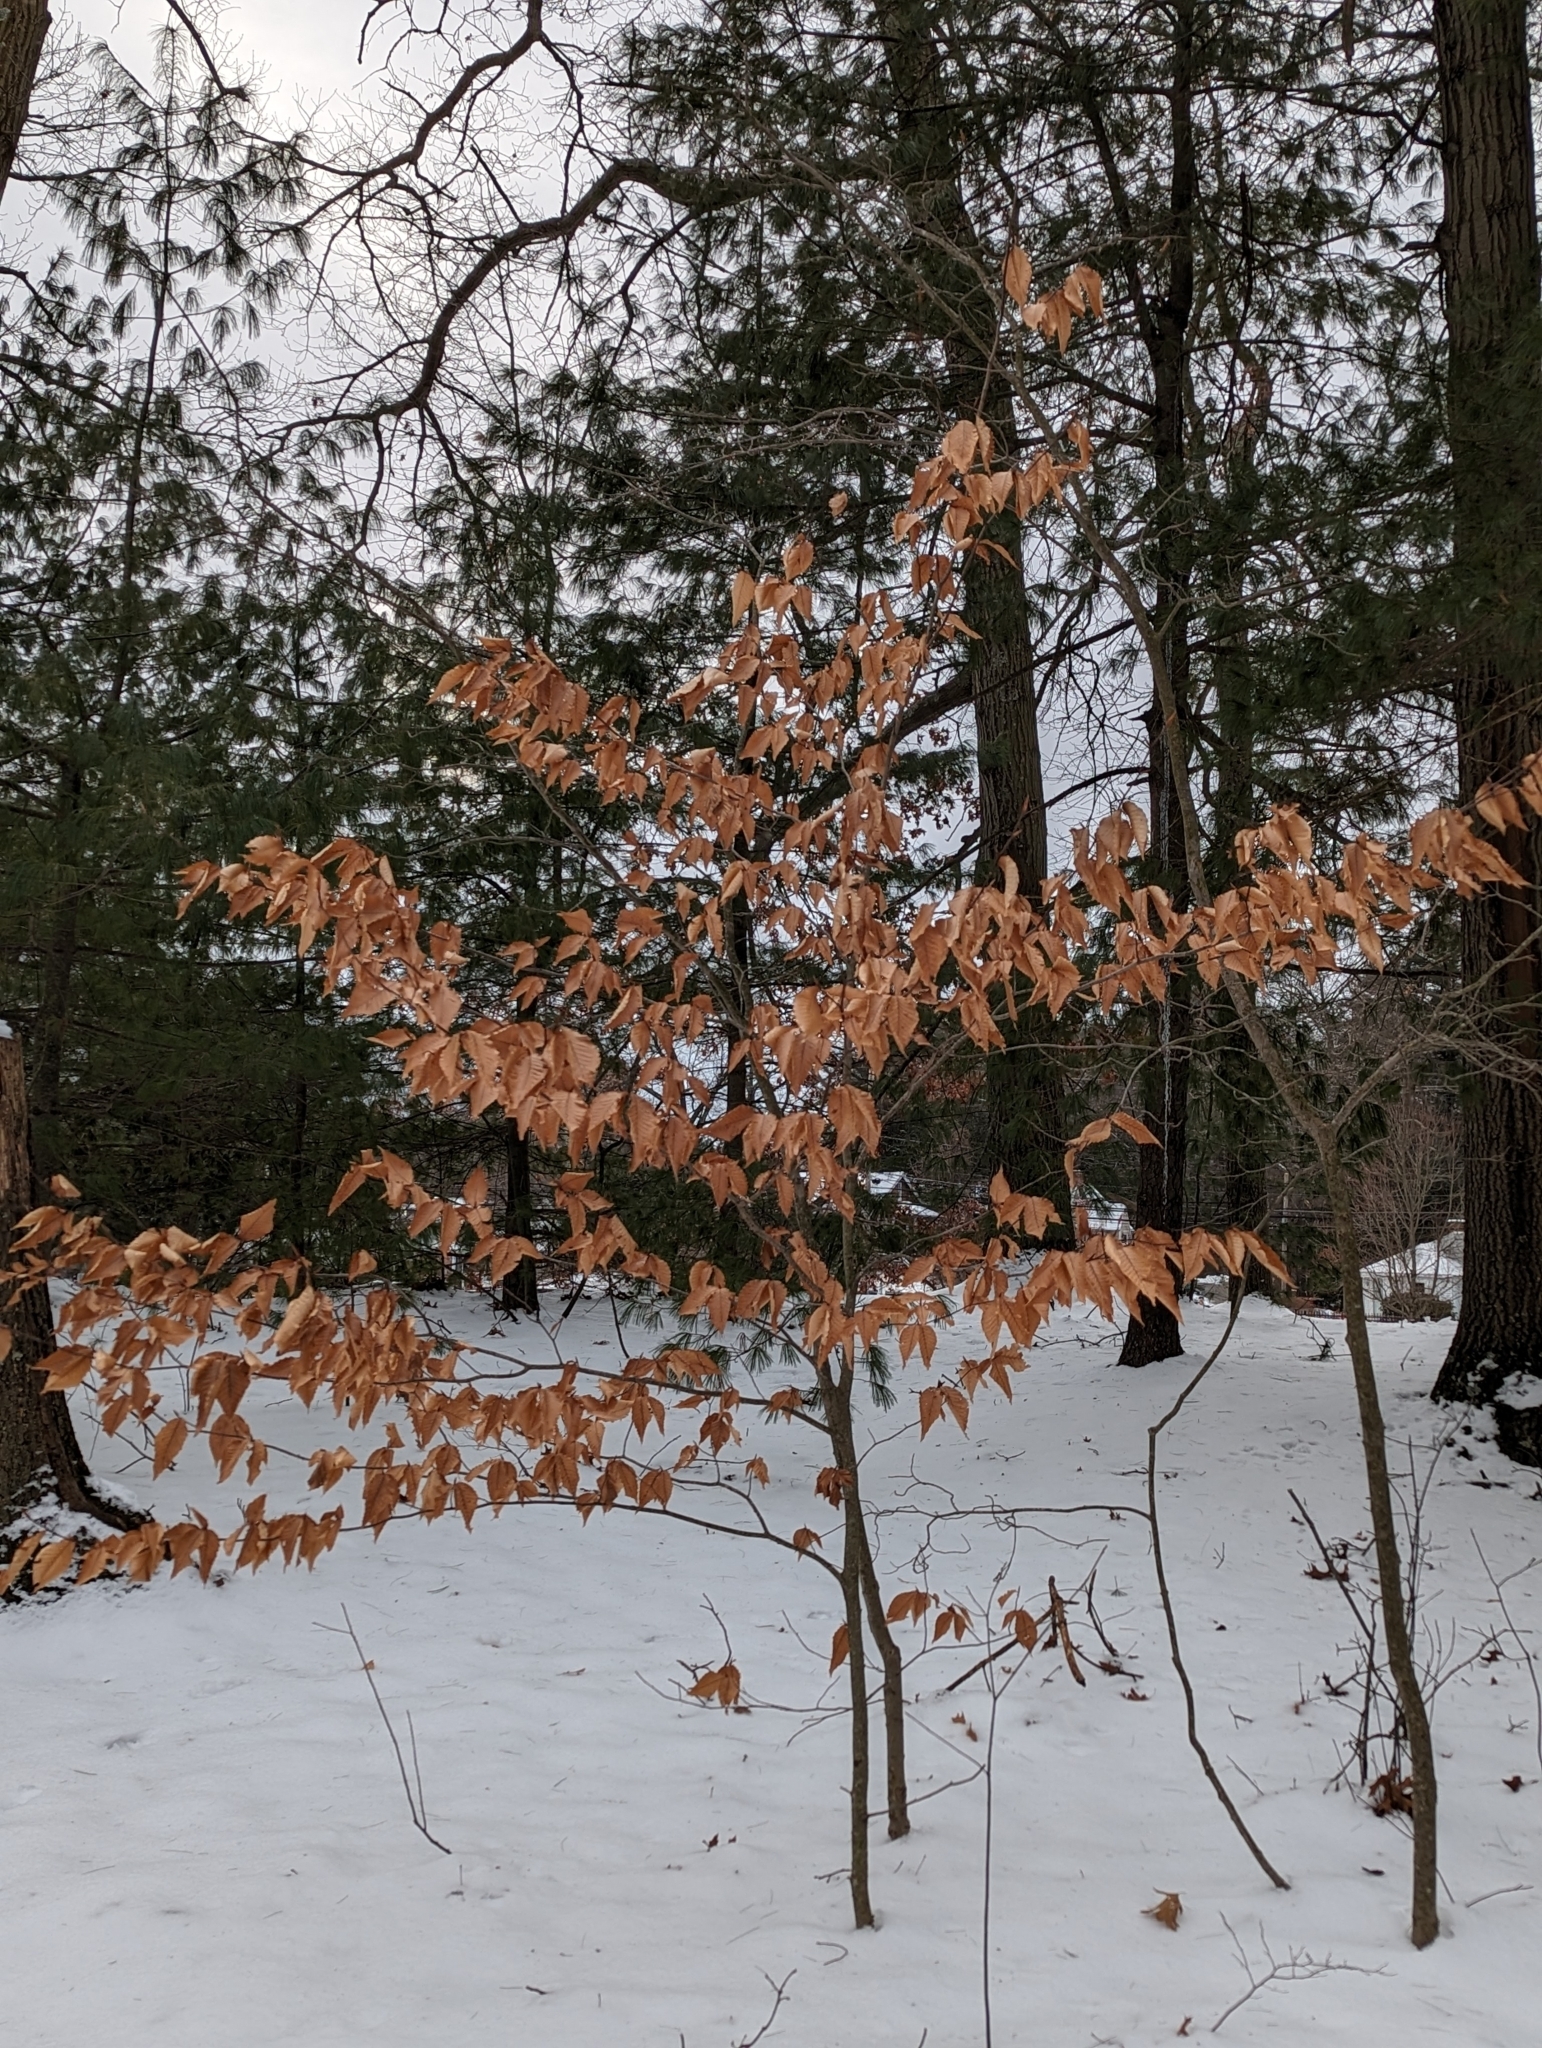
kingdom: Plantae
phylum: Tracheophyta
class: Magnoliopsida
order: Fagales
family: Fagaceae
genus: Fagus
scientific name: Fagus grandifolia
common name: American beech
